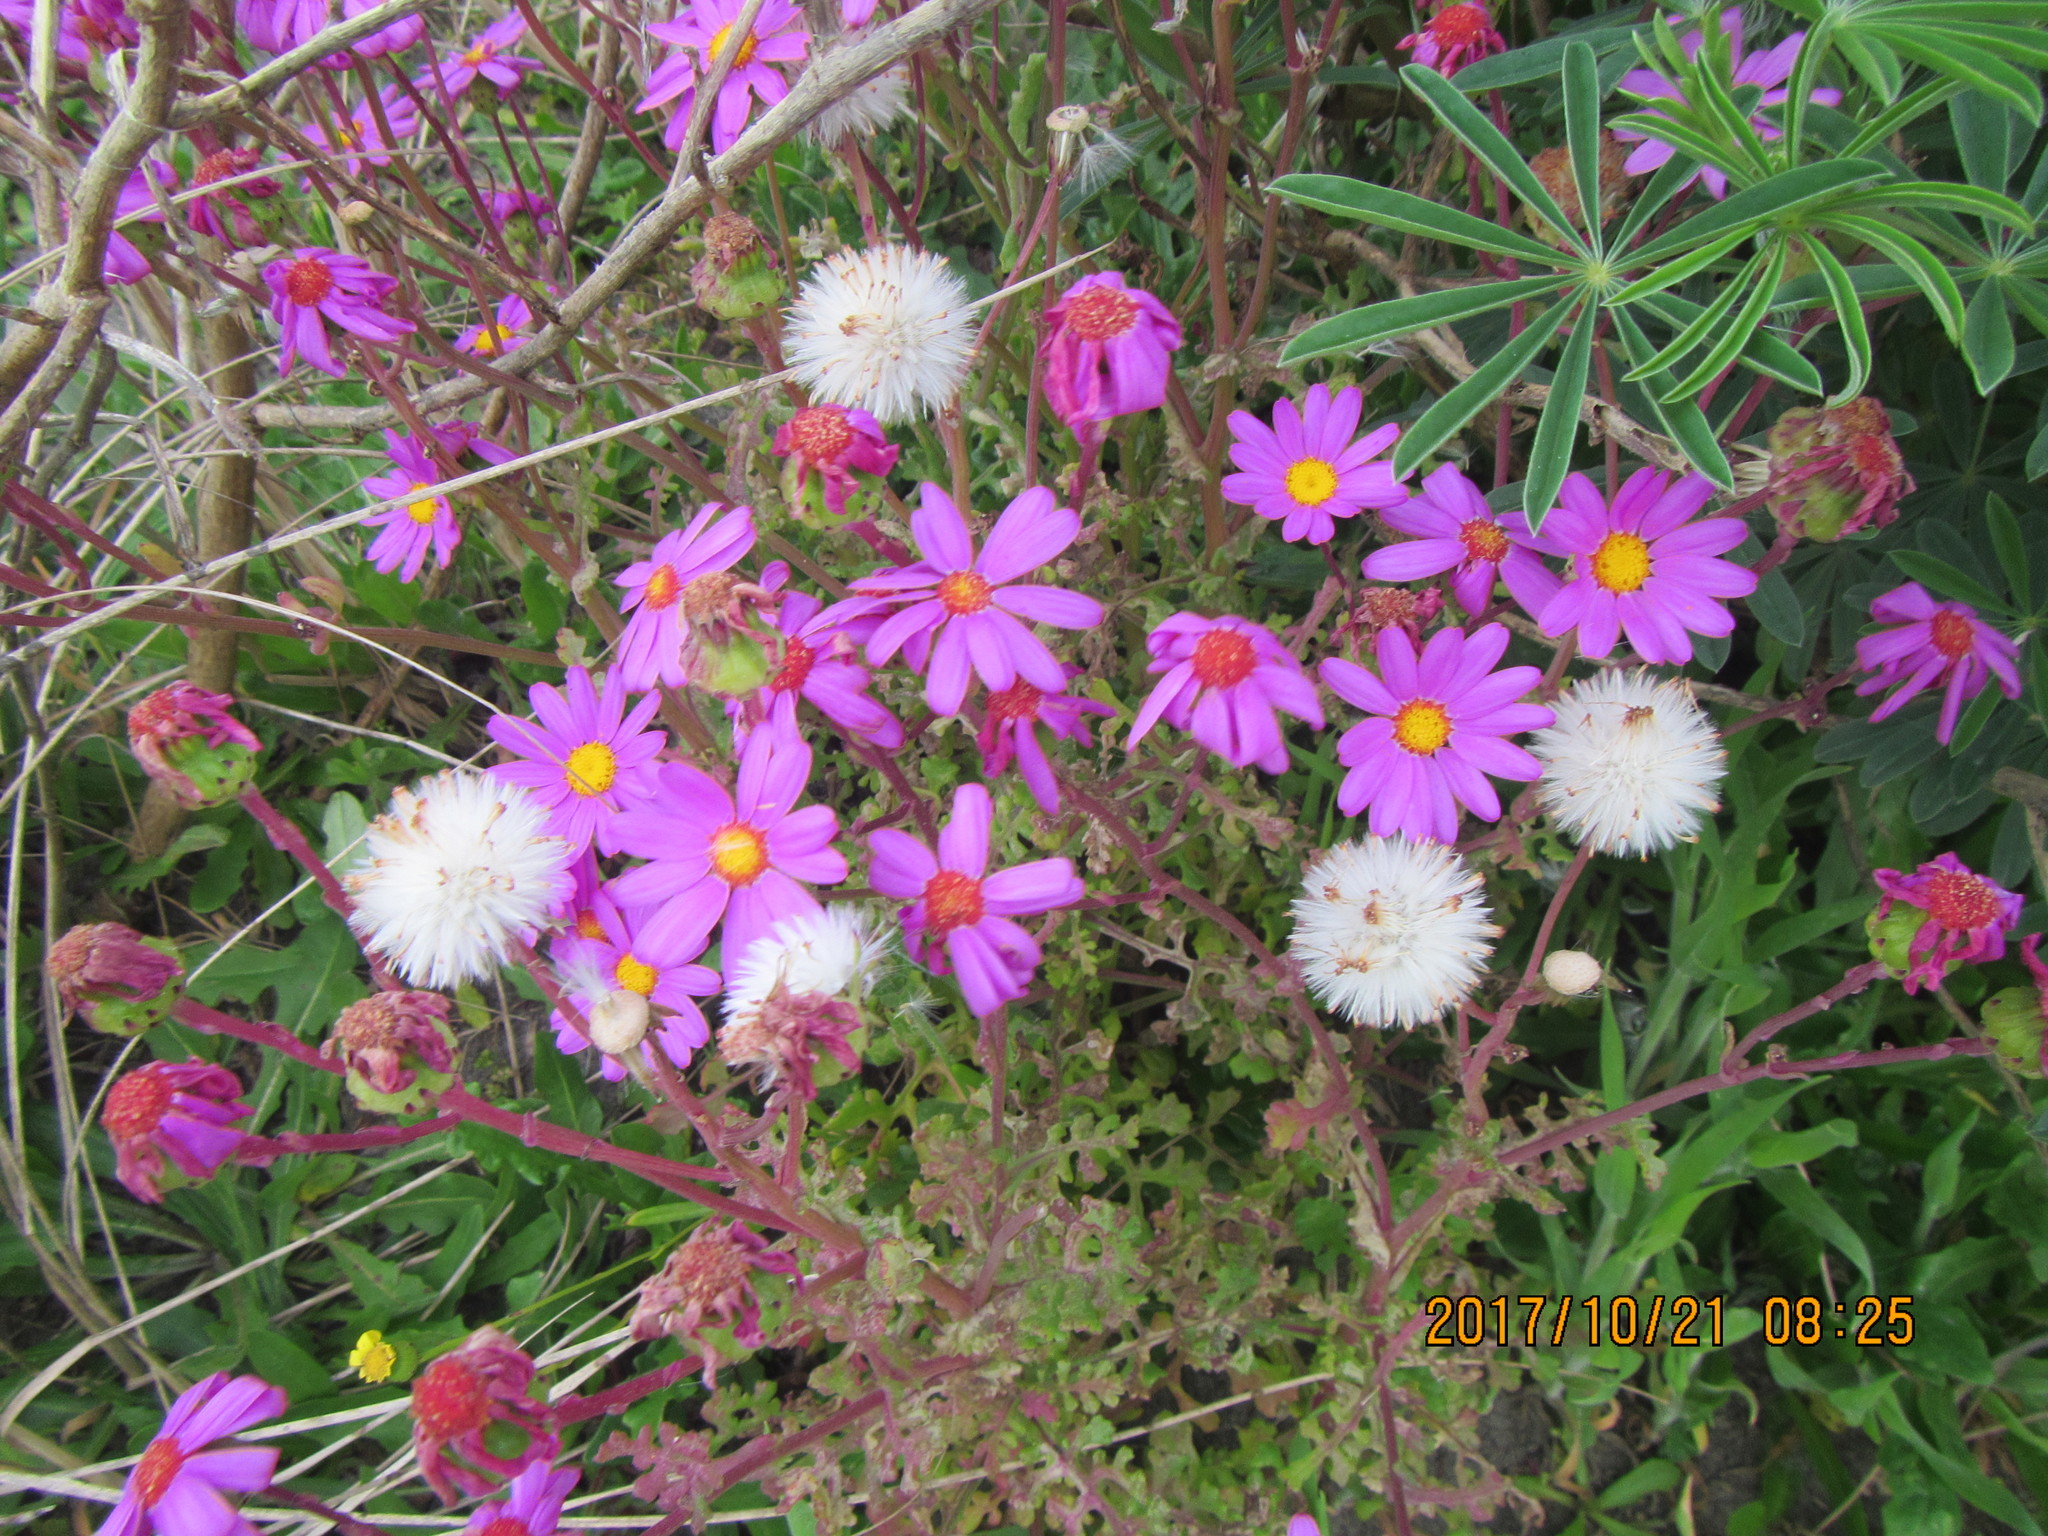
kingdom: Plantae
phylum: Tracheophyta
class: Magnoliopsida
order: Asterales
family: Asteraceae
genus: Senecio
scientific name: Senecio elegans
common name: Purple groundsel
